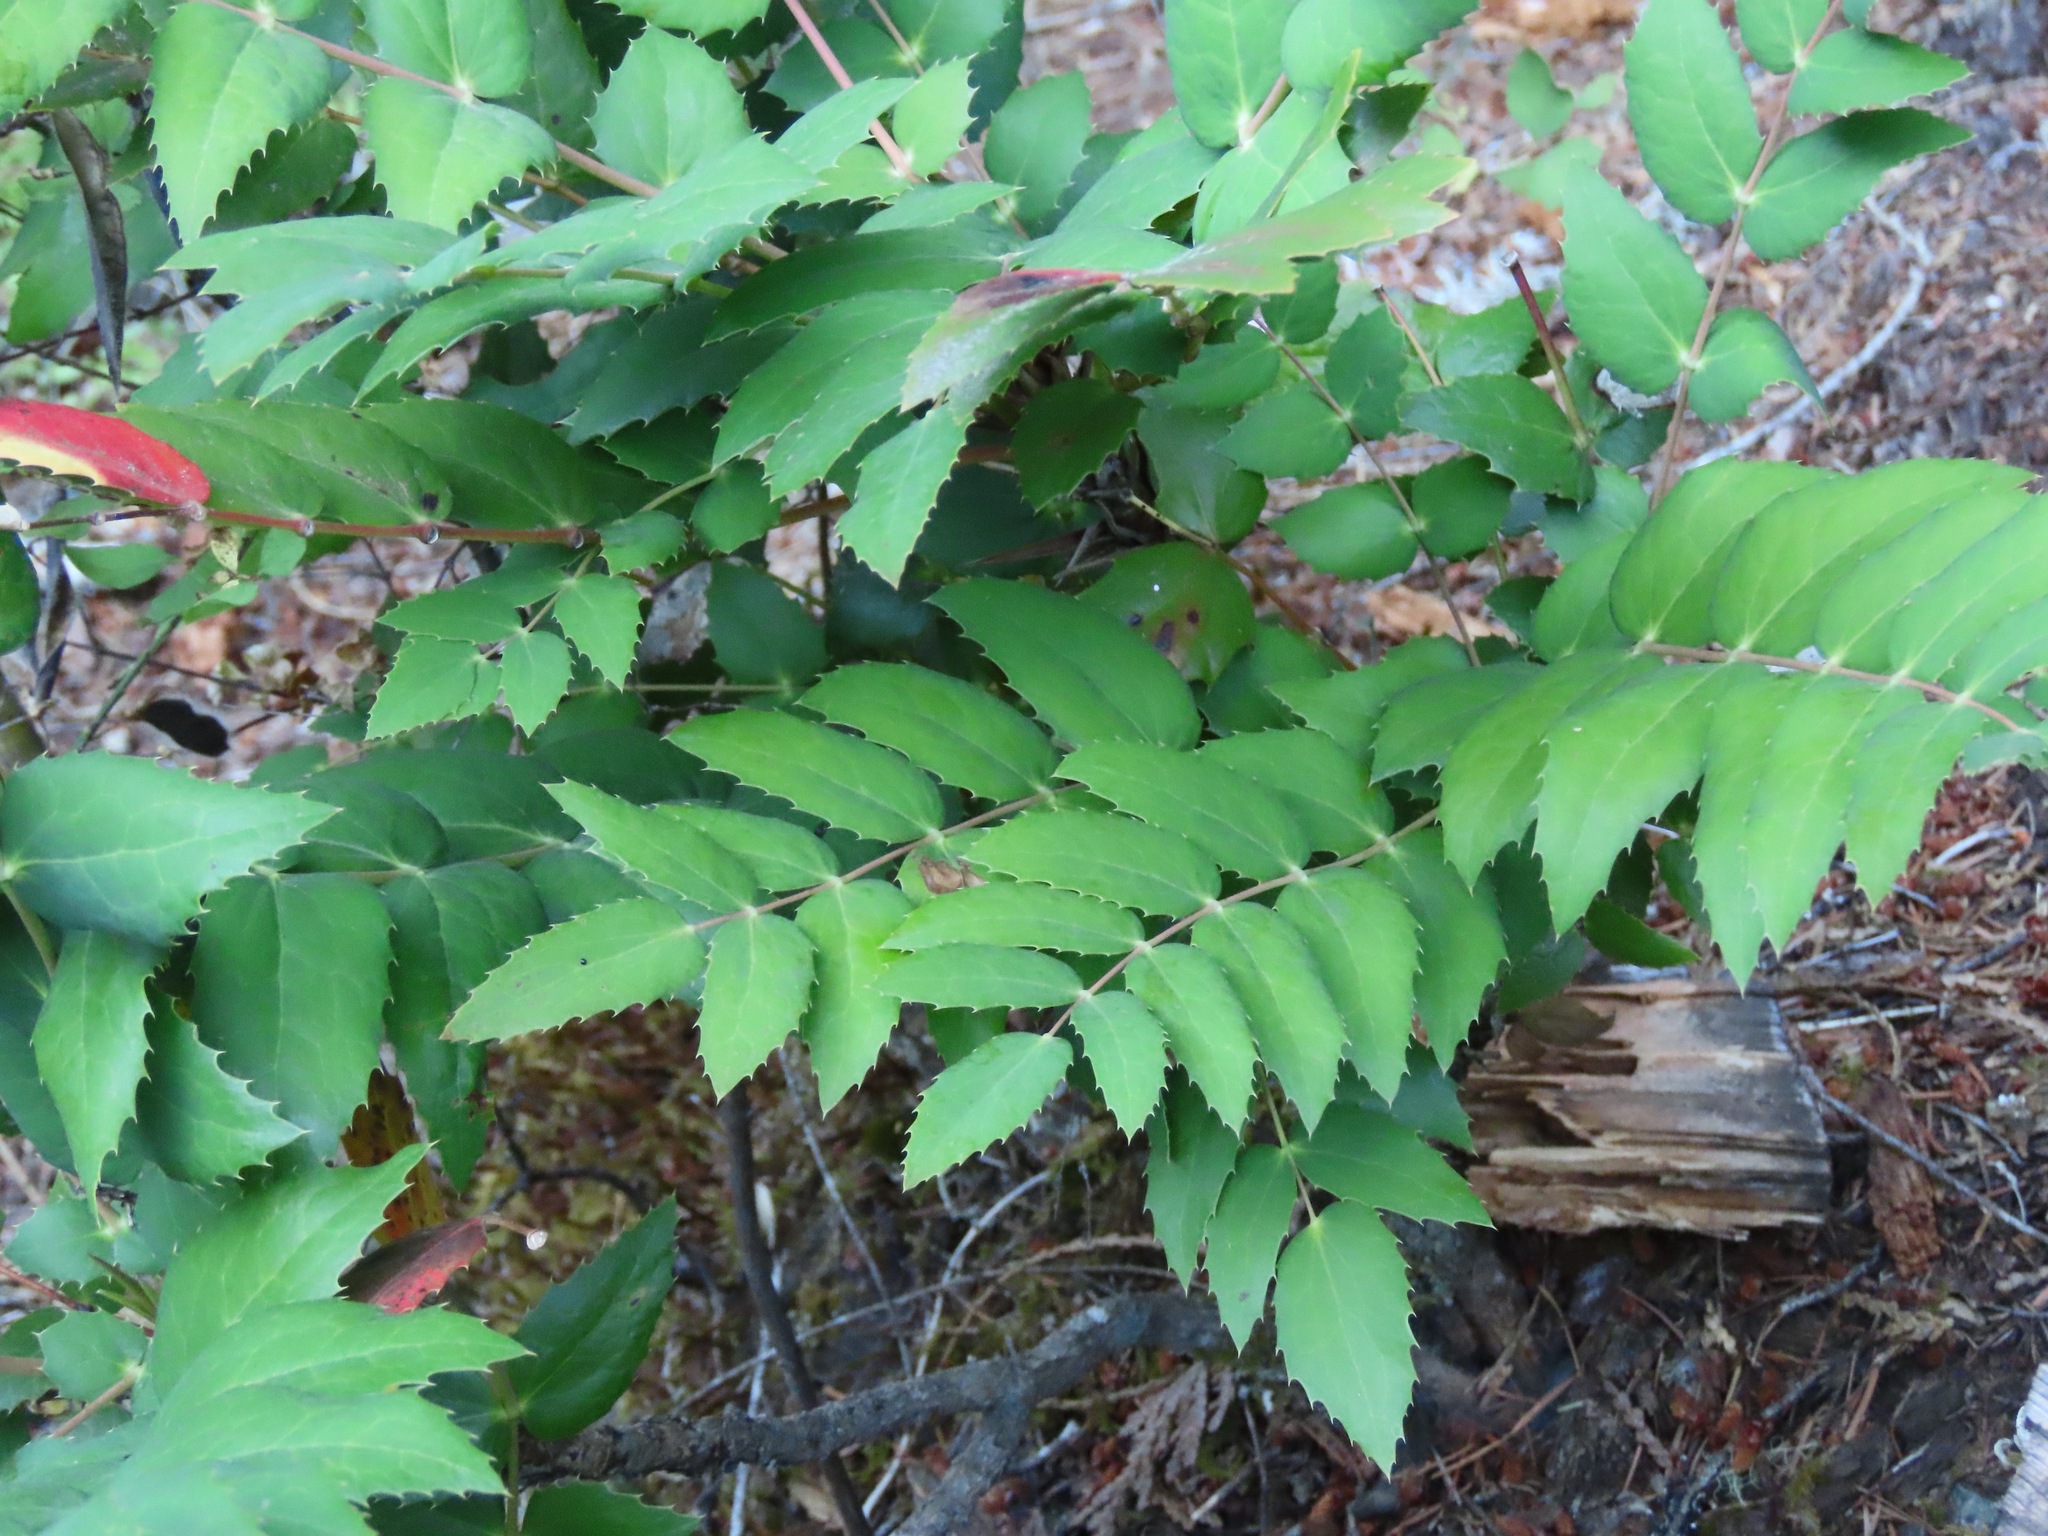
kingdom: Plantae
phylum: Tracheophyta
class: Magnoliopsida
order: Ranunculales
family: Berberidaceae
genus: Mahonia
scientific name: Mahonia nervosa
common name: Cascade oregon-grape
